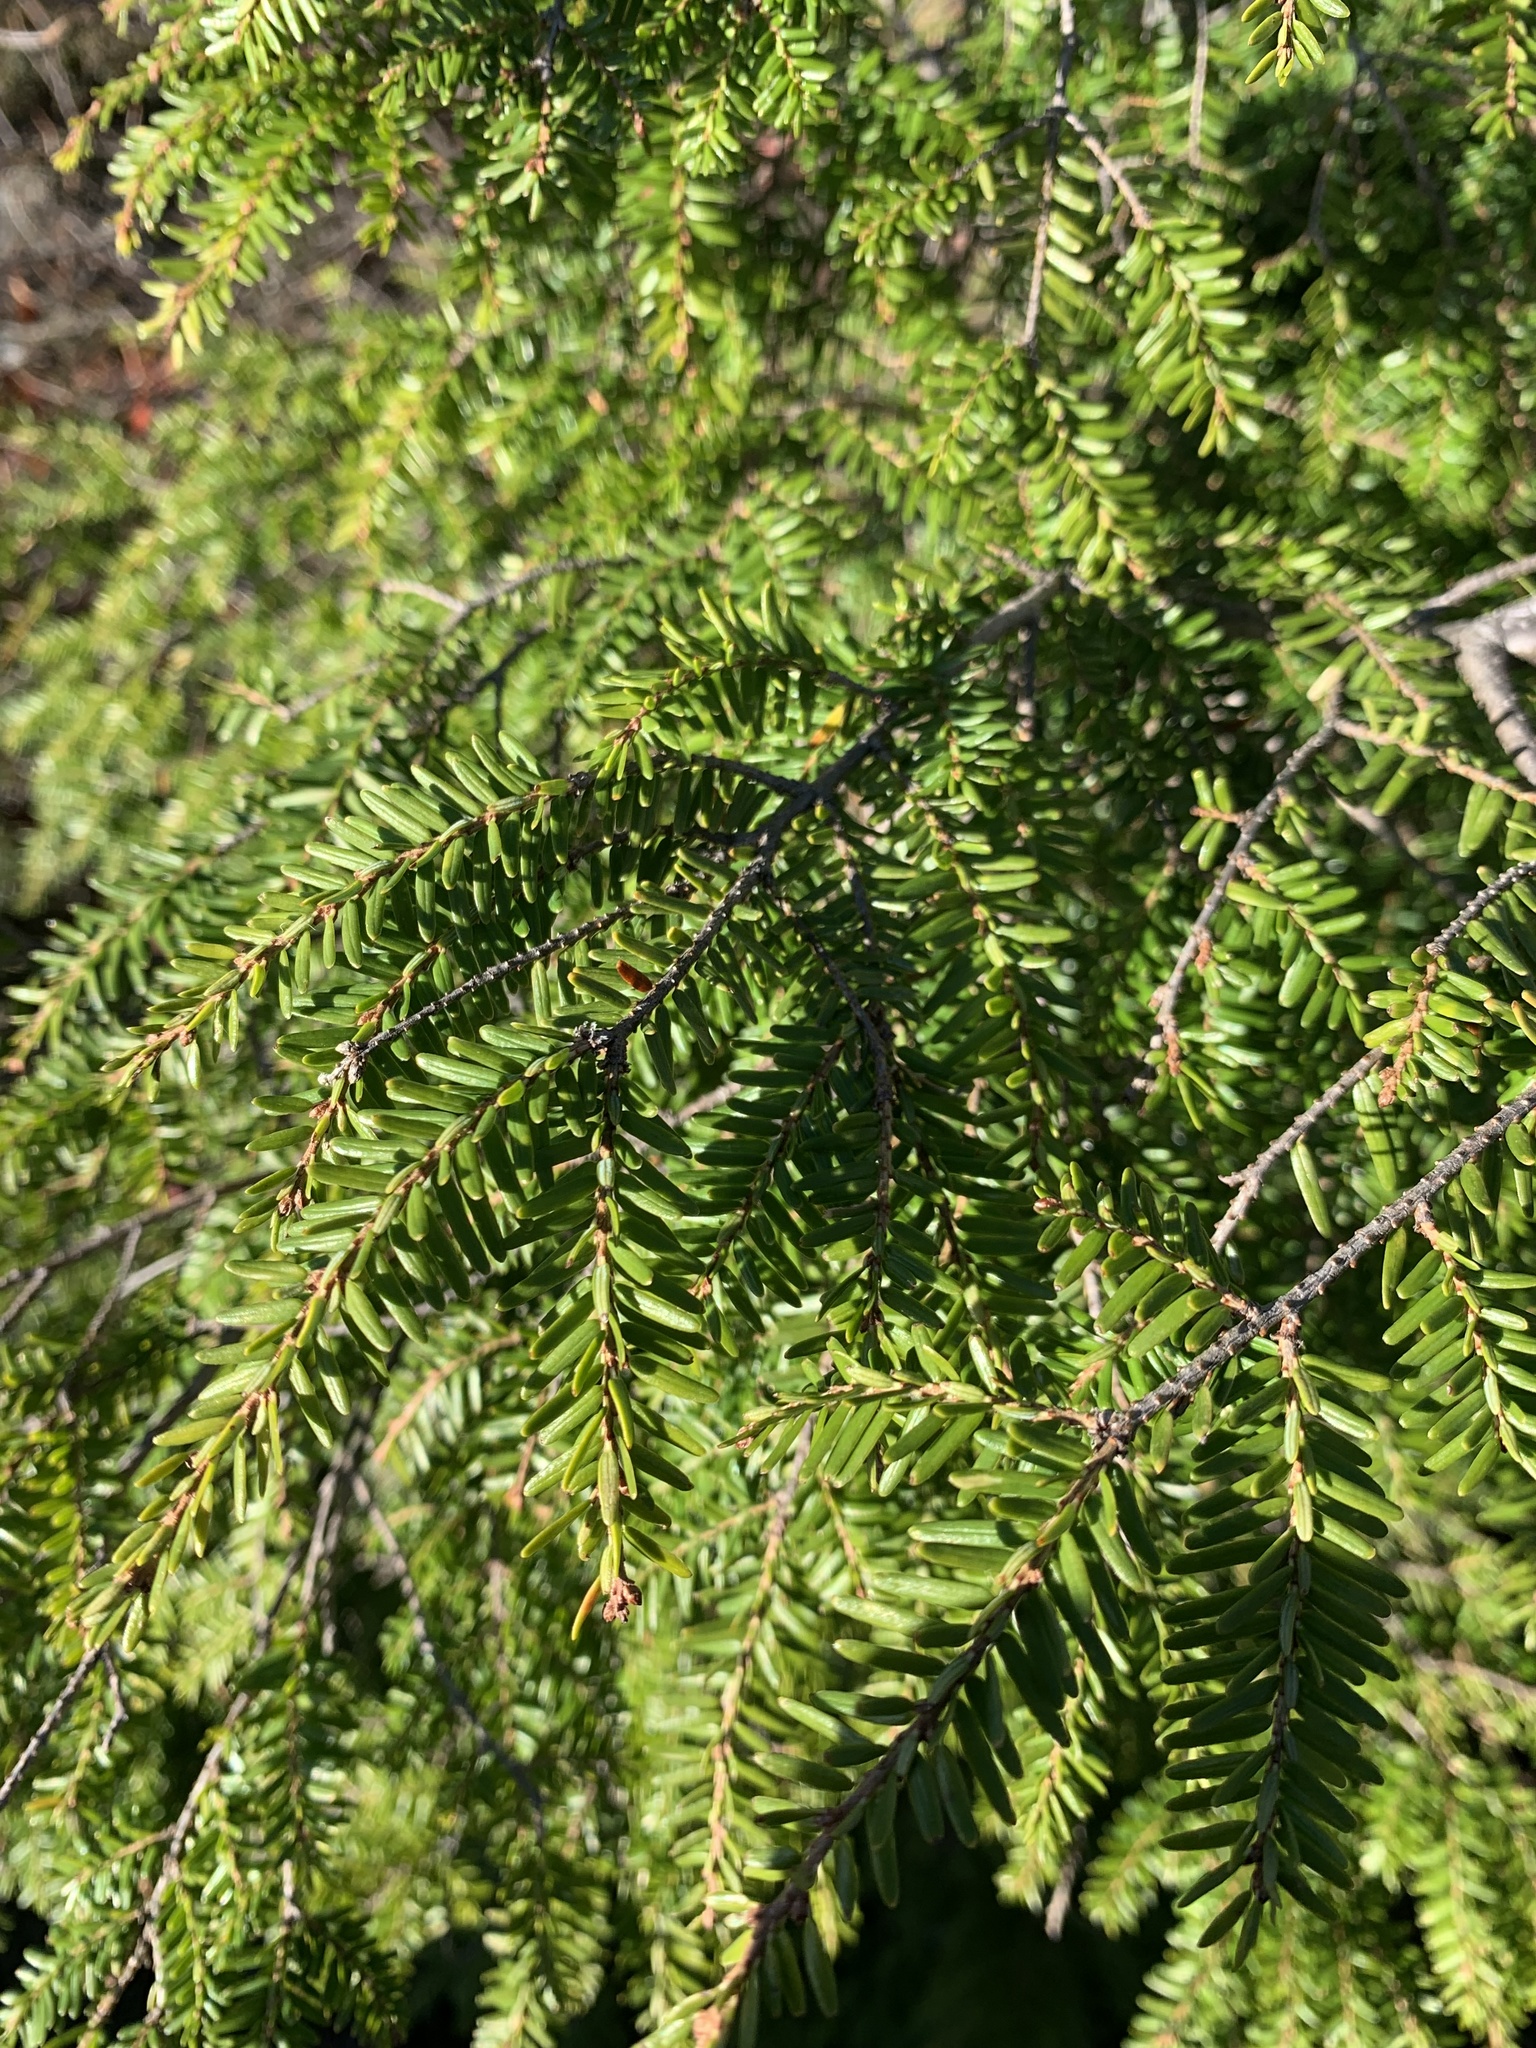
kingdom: Plantae
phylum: Tracheophyta
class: Pinopsida
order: Pinales
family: Pinaceae
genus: Tsuga
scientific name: Tsuga canadensis
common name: Eastern hemlock
